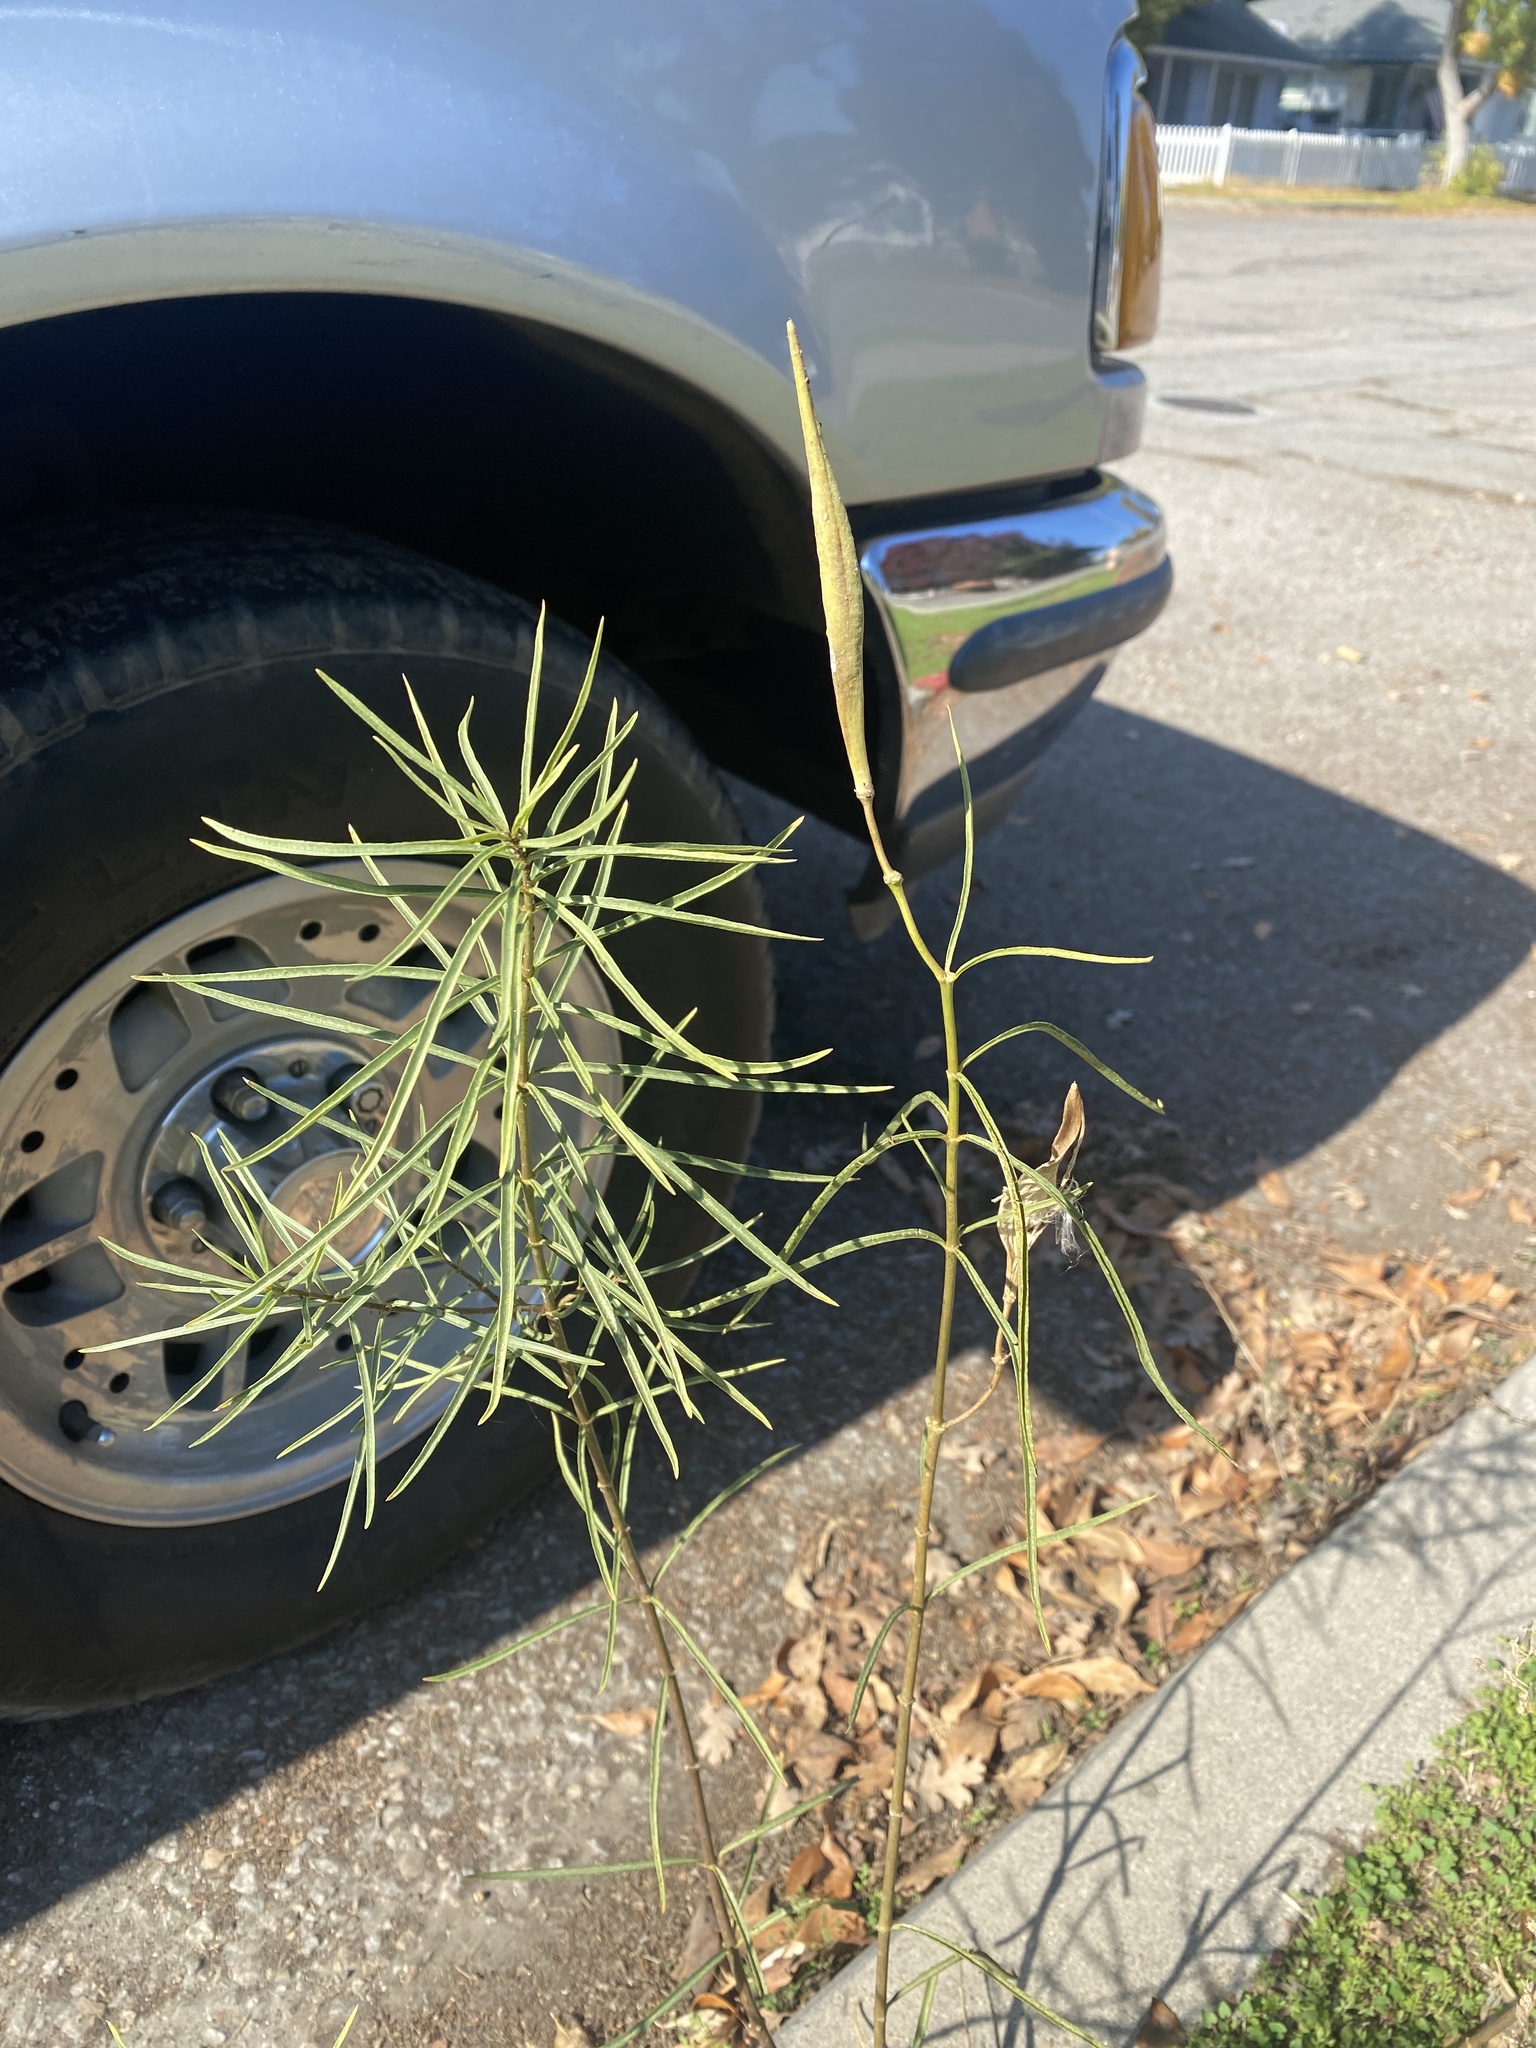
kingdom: Plantae
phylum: Tracheophyta
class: Magnoliopsida
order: Gentianales
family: Apocynaceae
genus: Asclepias
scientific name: Asclepias fascicularis
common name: Mexican milkweed
